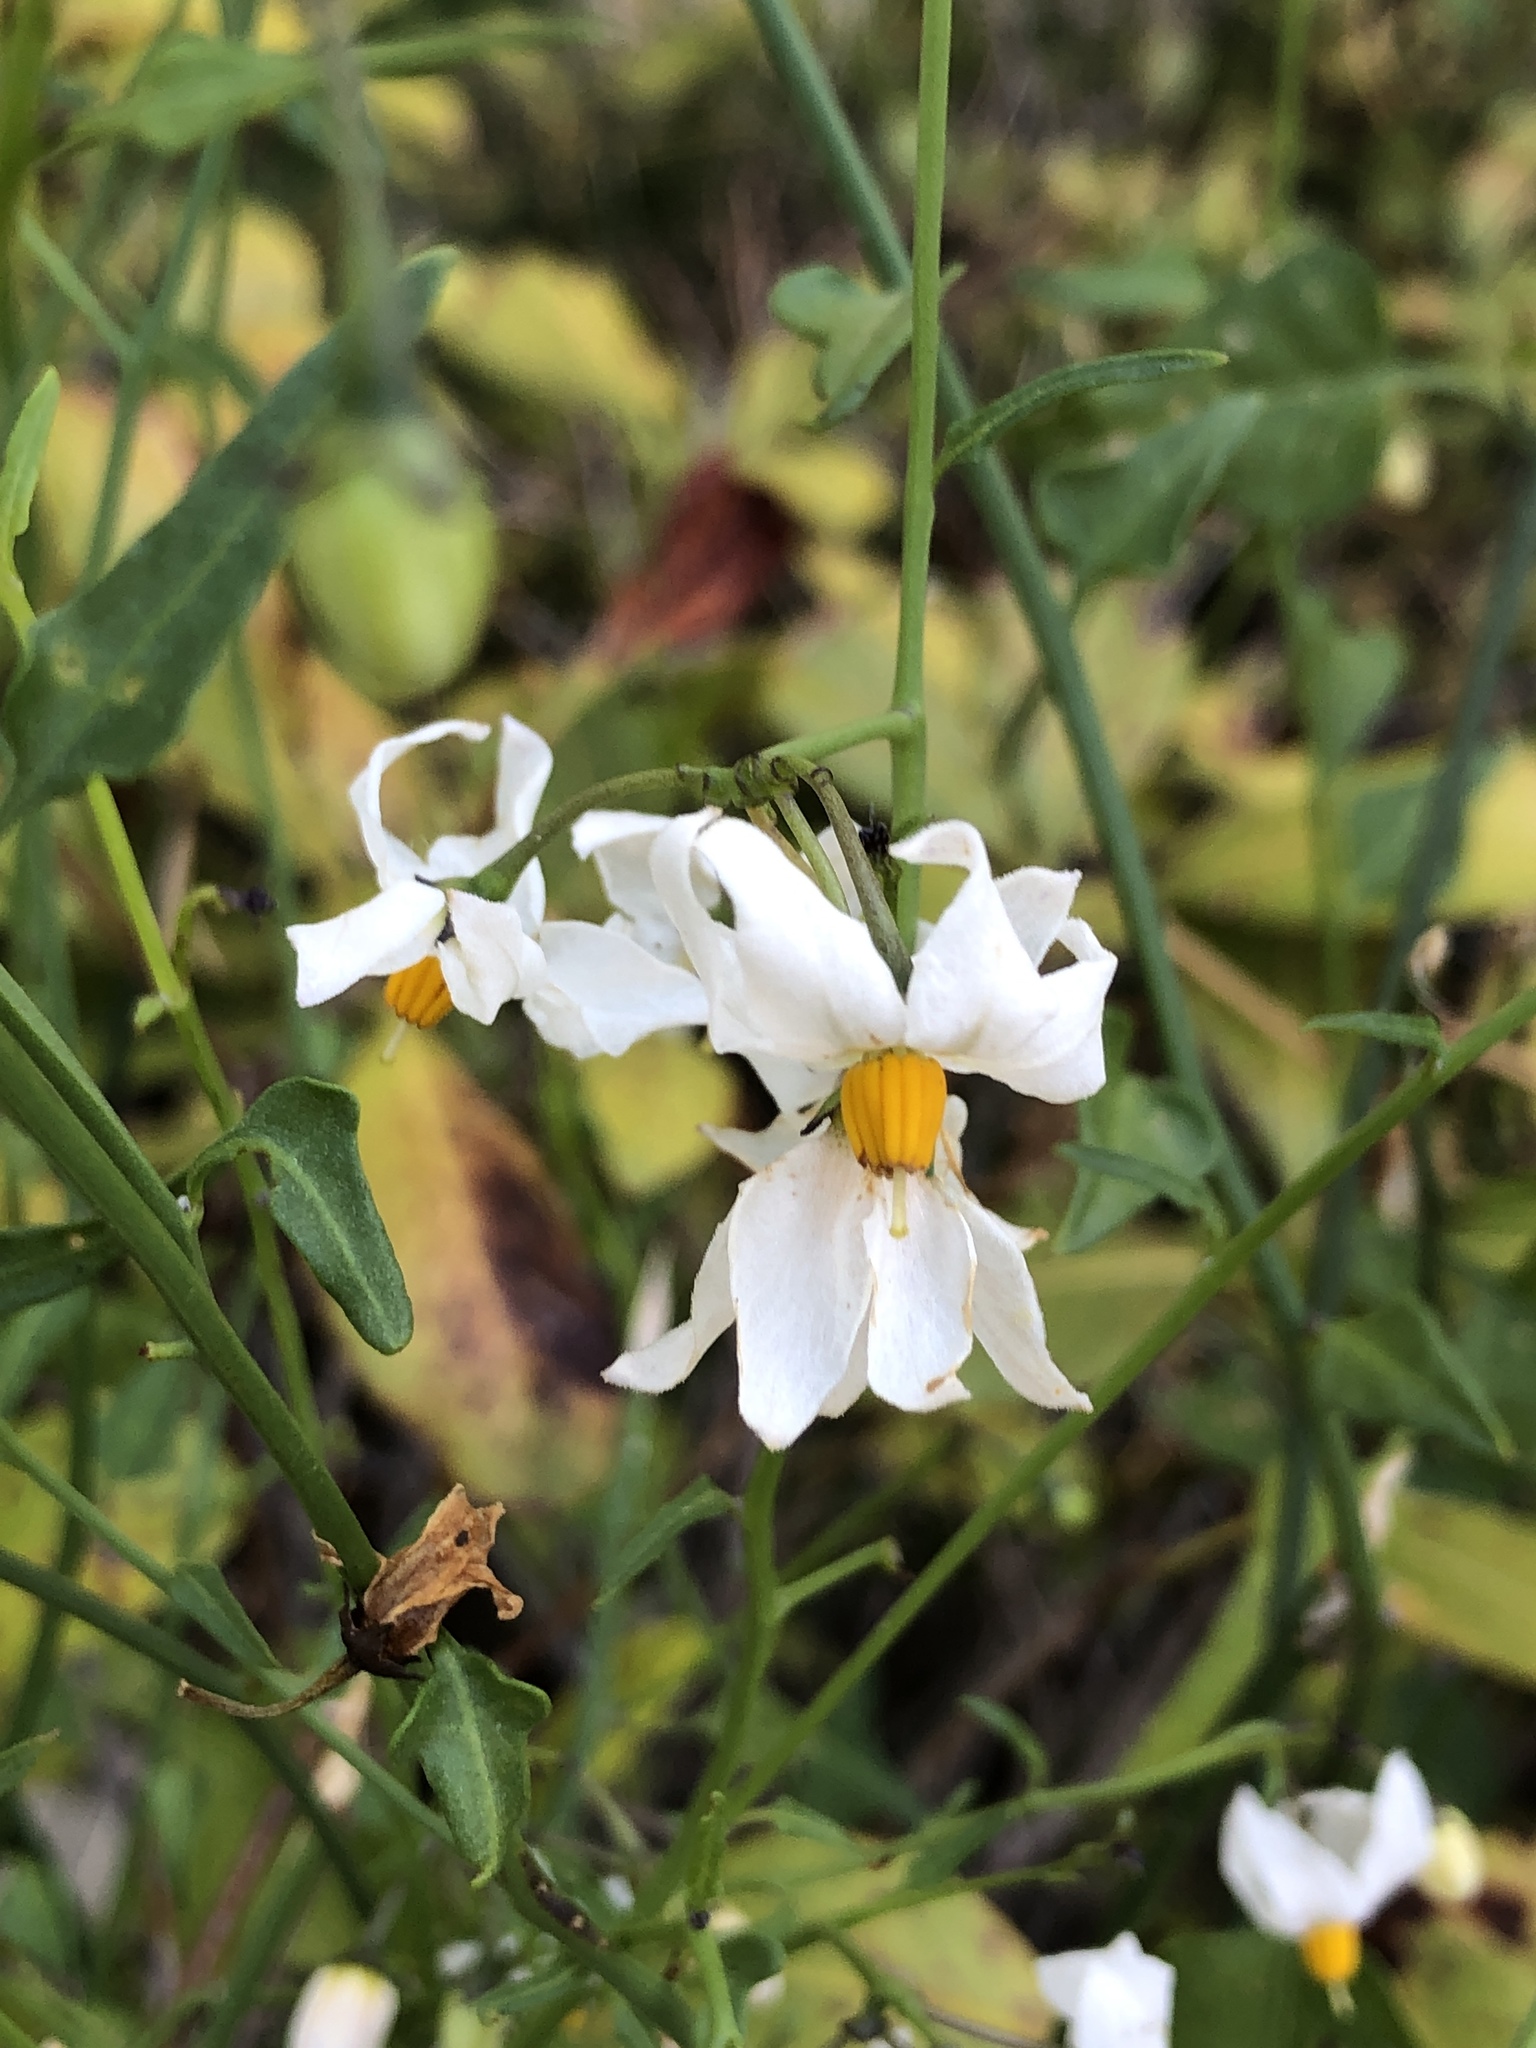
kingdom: Plantae
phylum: Tracheophyta
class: Magnoliopsida
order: Solanales
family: Solanaceae
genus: Solanum
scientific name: Solanum triquetrum
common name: Texas nightshade
